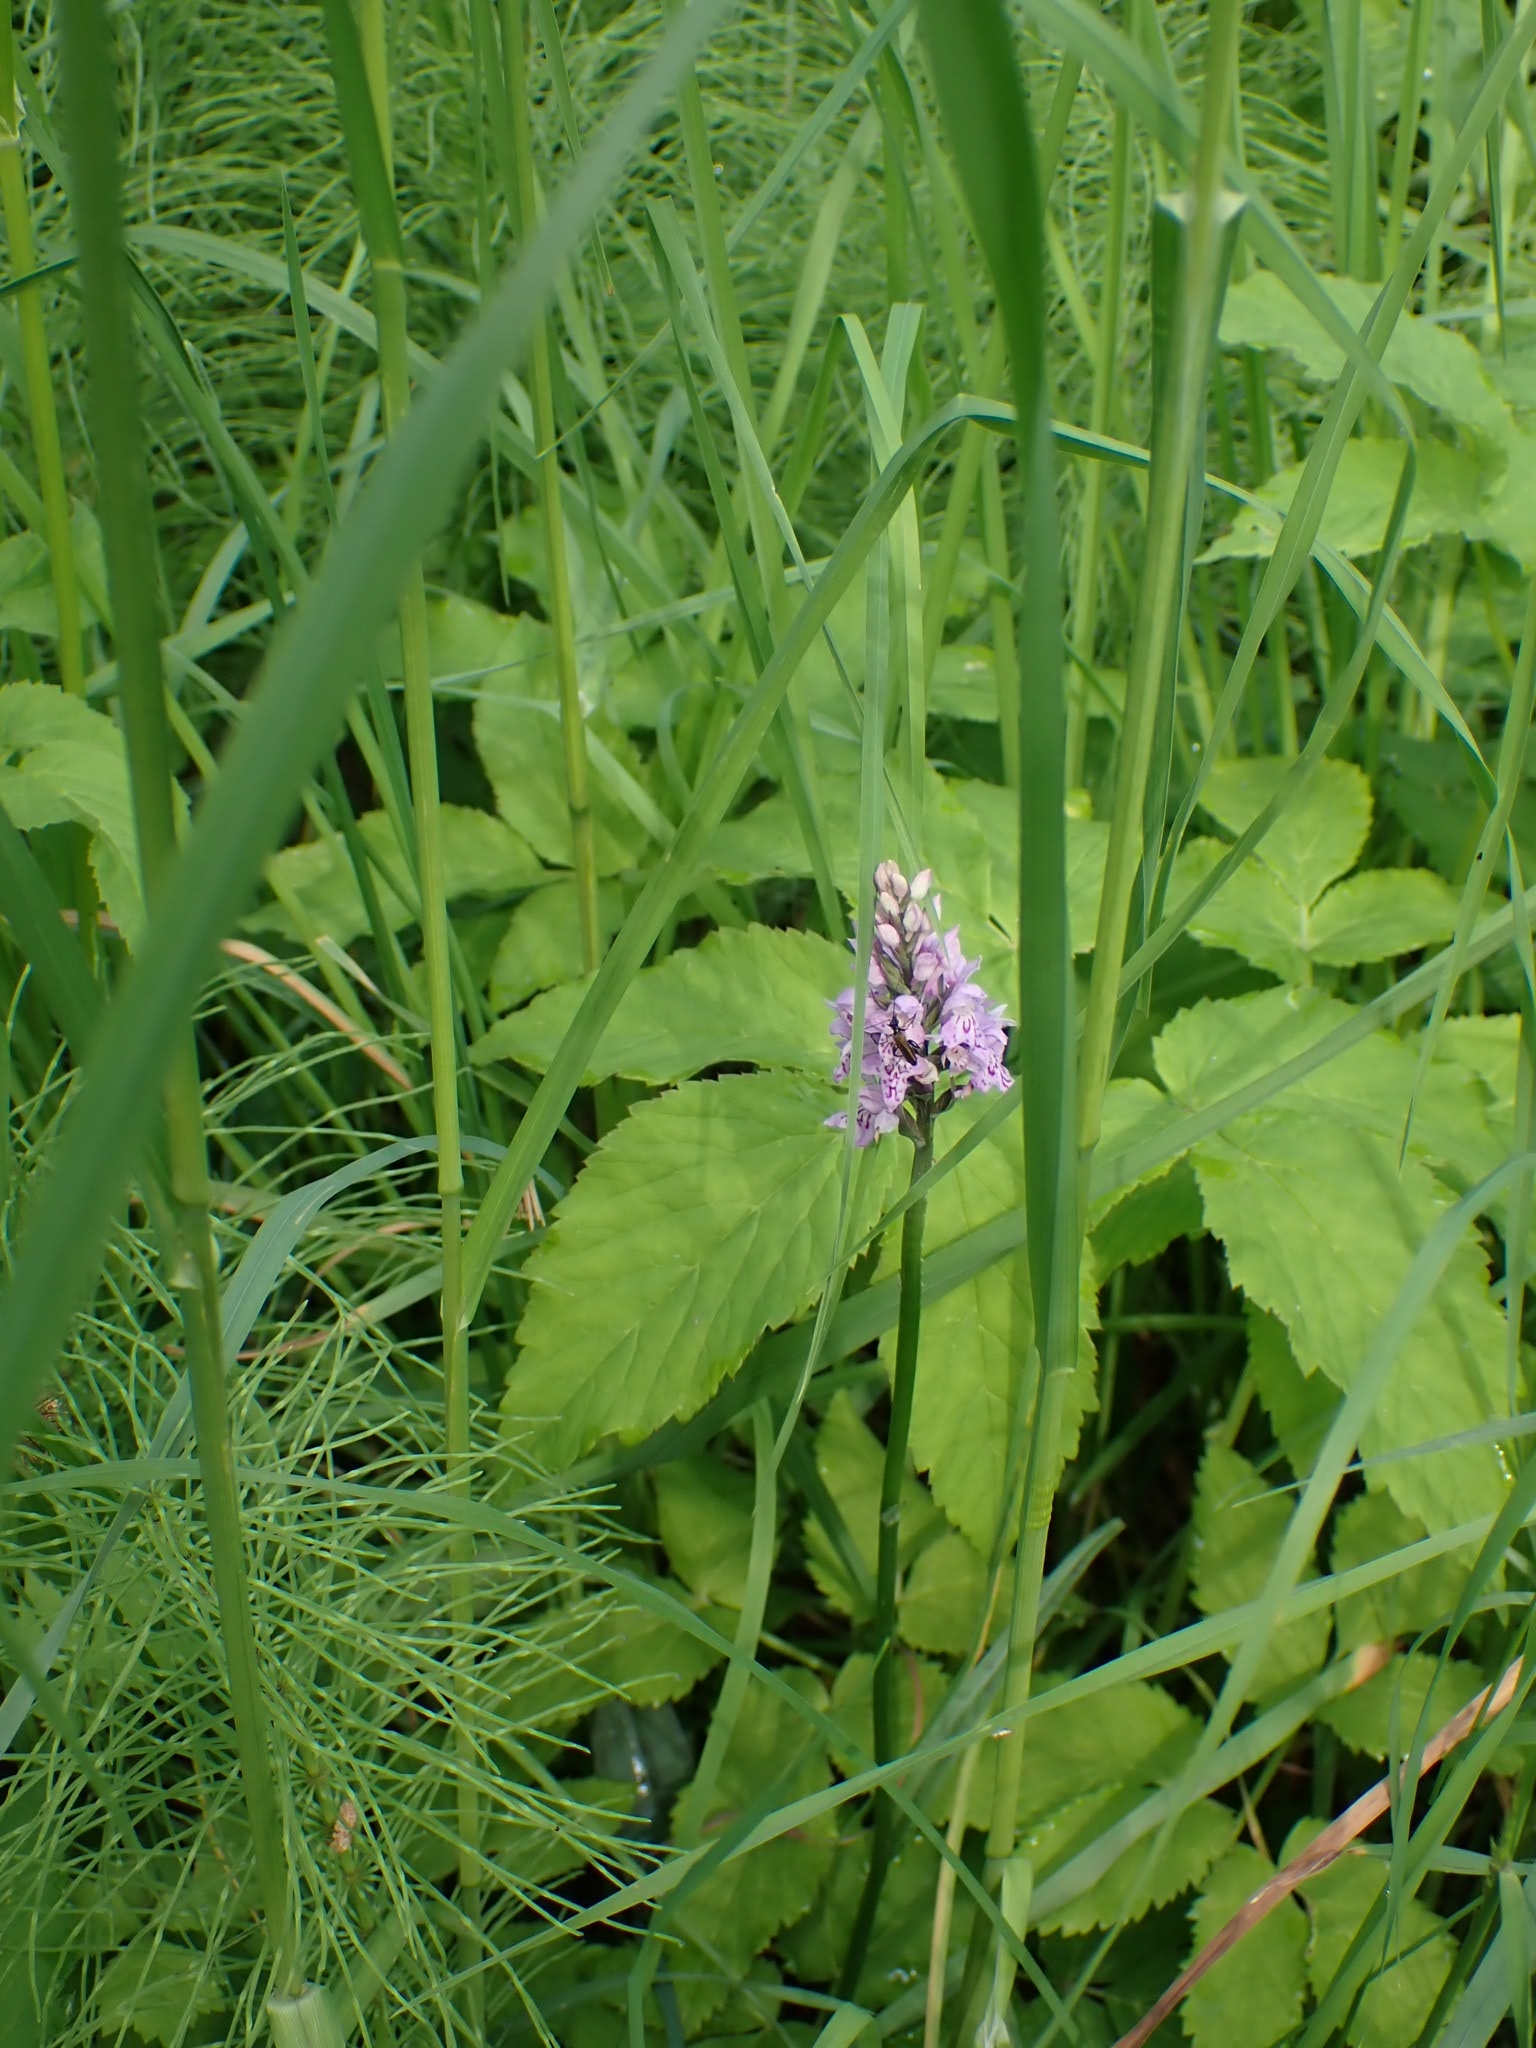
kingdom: Plantae
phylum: Tracheophyta
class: Liliopsida
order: Asparagales
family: Orchidaceae
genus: Dactylorhiza
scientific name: Dactylorhiza maculata
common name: Heath spotted-orchid
